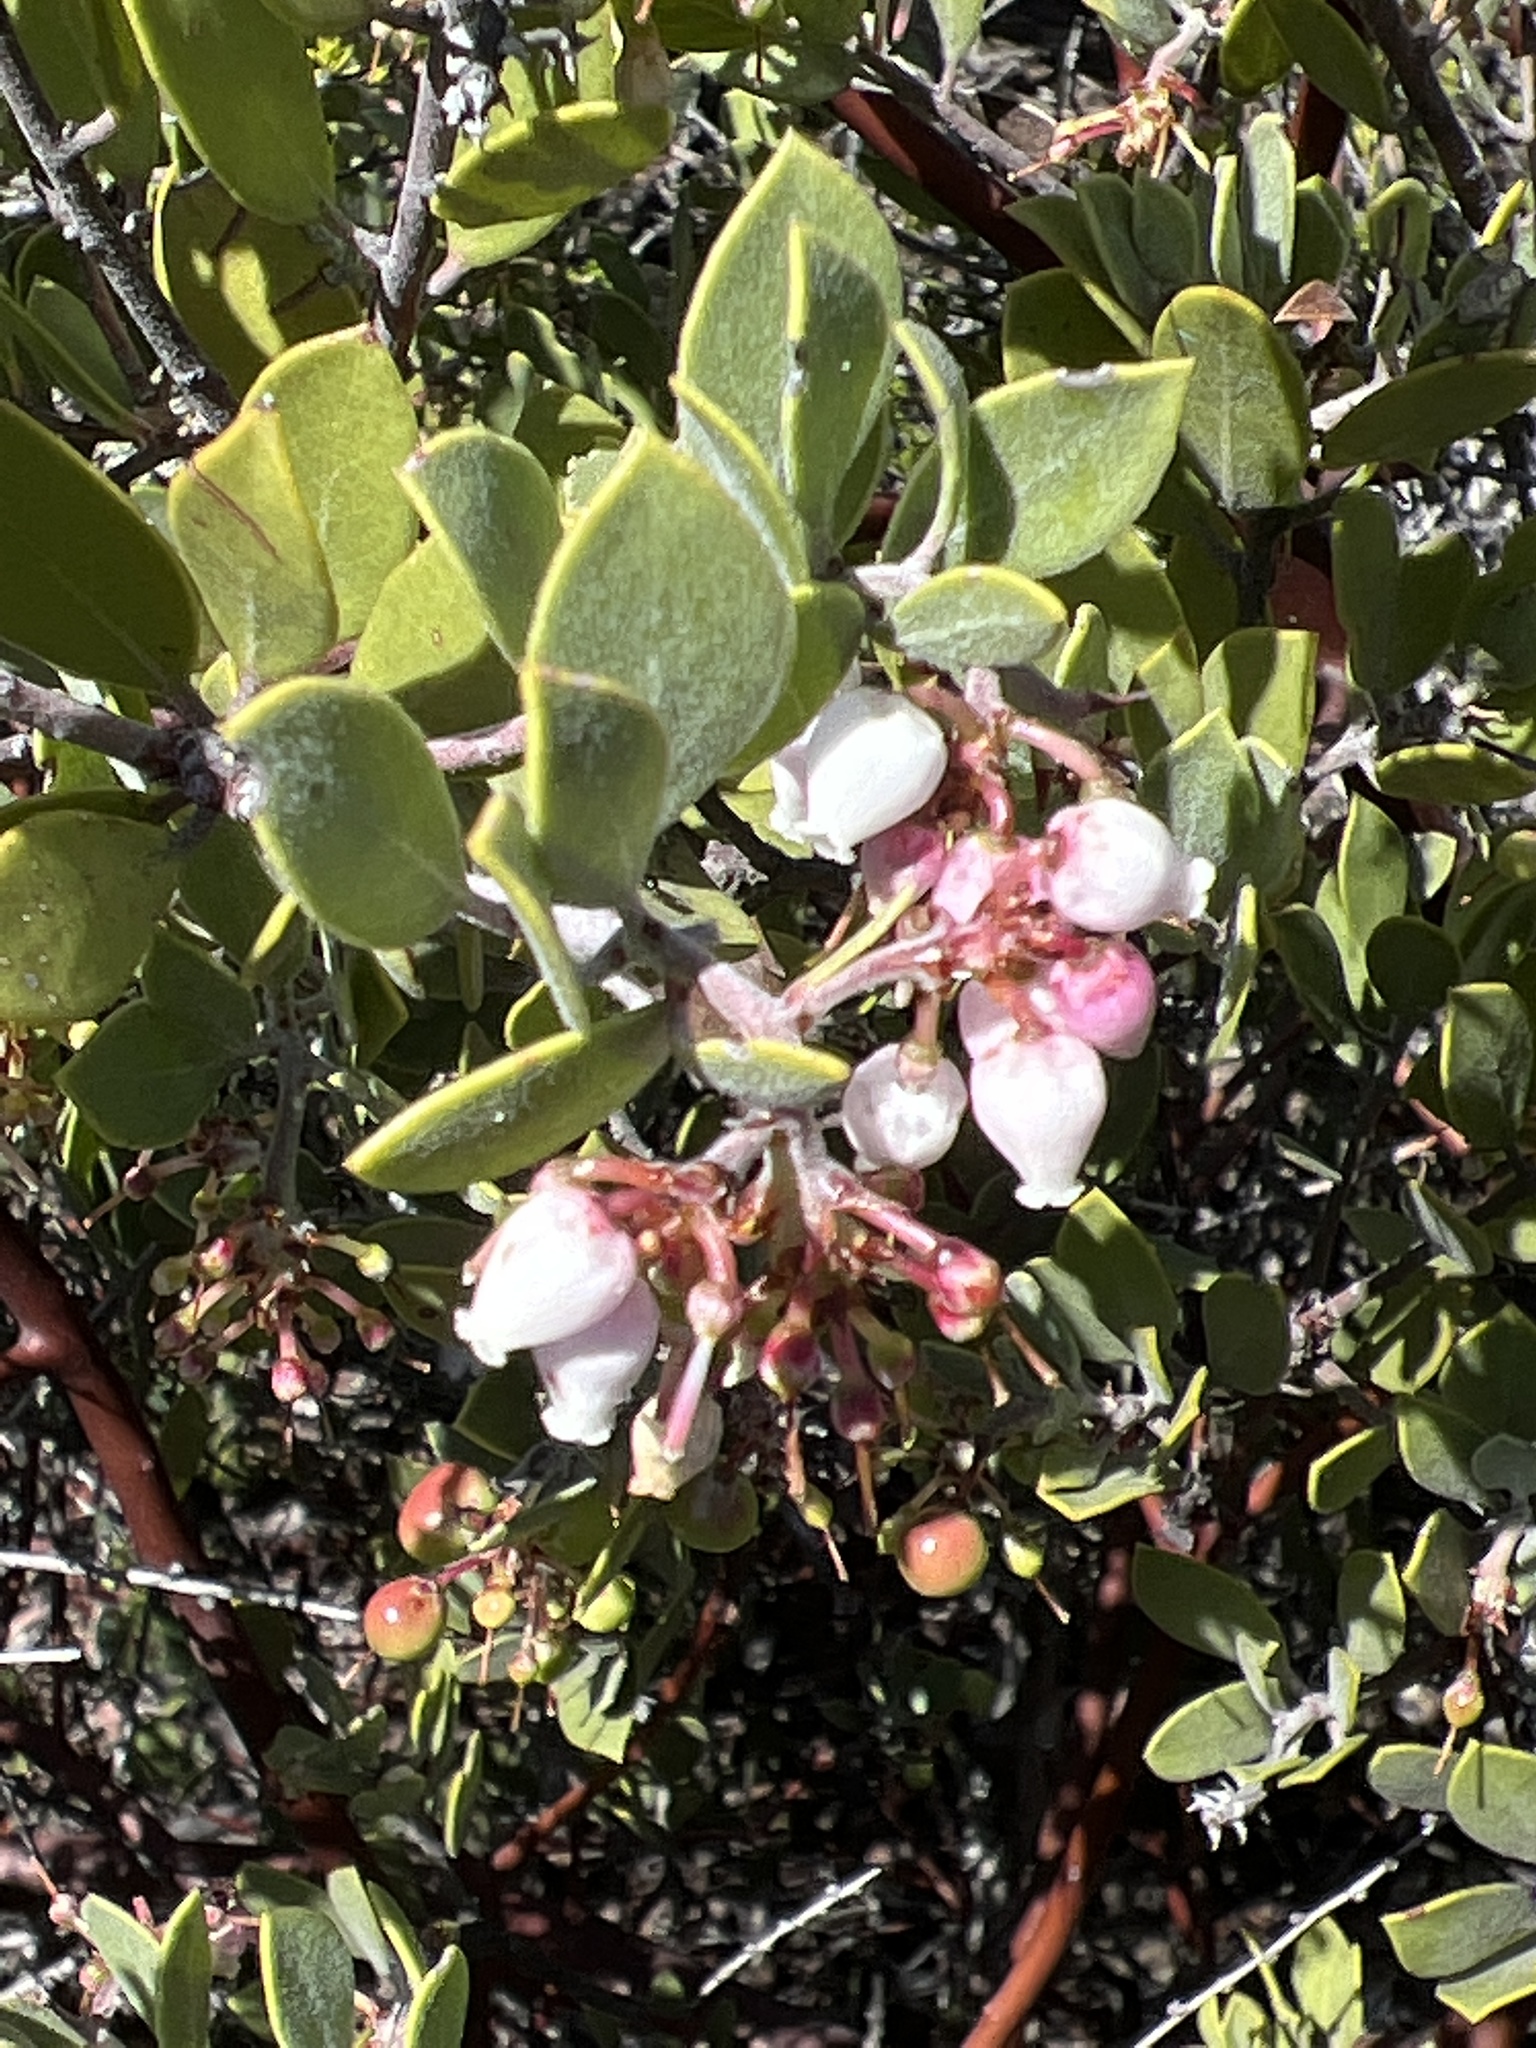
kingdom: Plantae
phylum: Tracheophyta
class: Magnoliopsida
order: Ericales
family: Ericaceae
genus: Arctostaphylos
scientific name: Arctostaphylos montana
